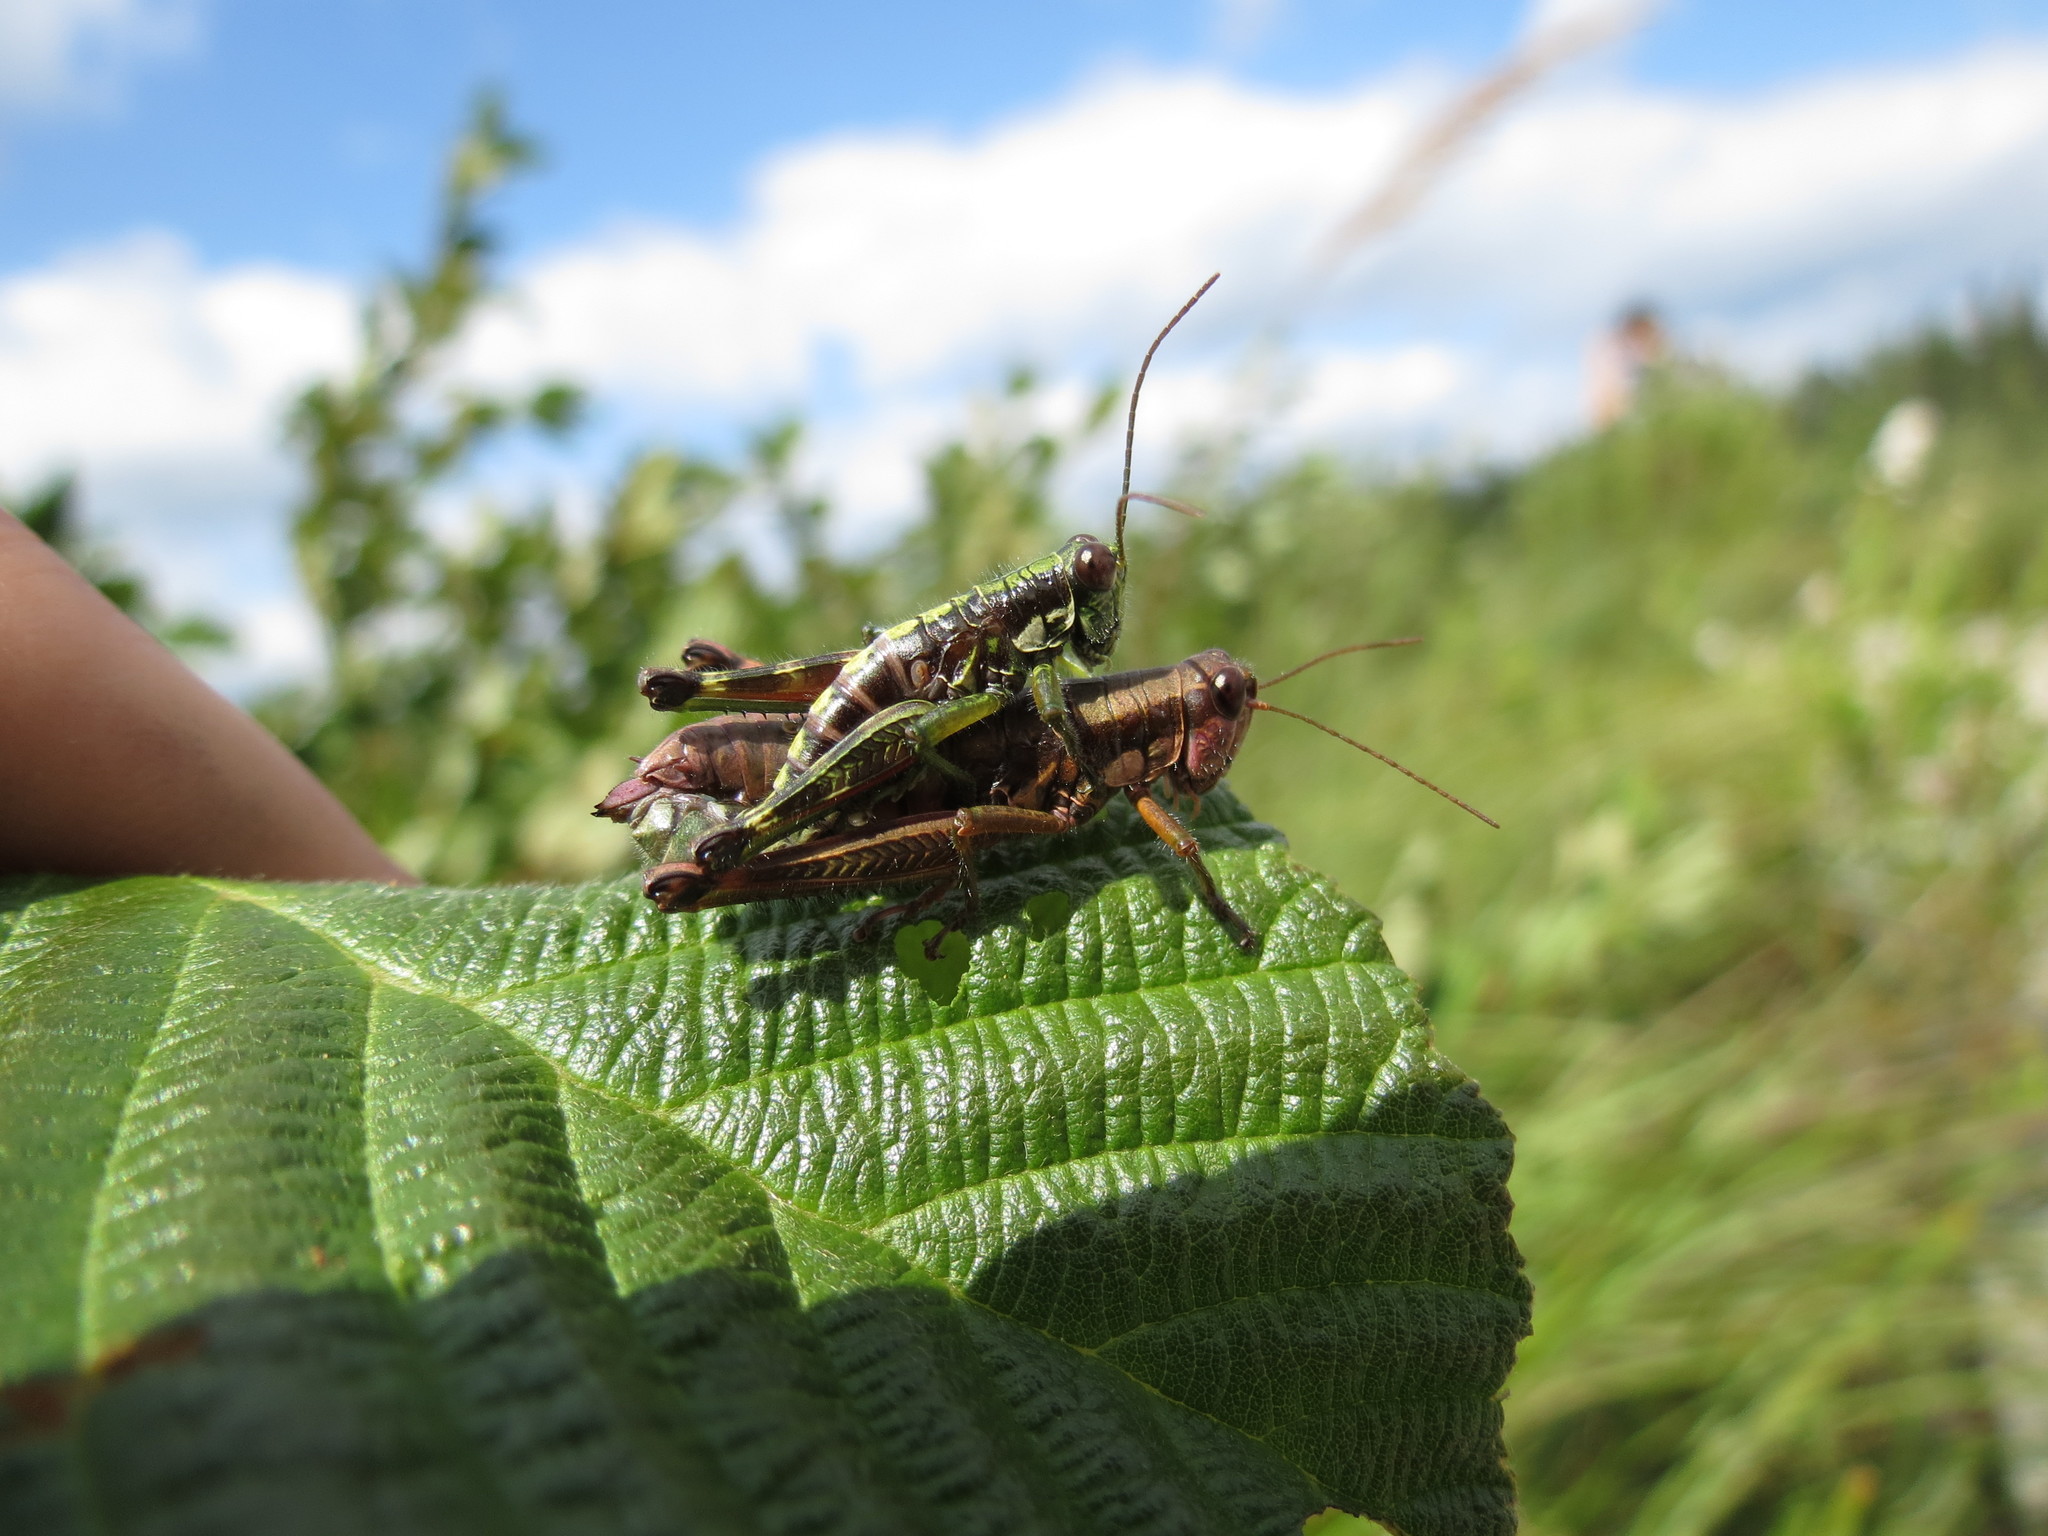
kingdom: Animalia
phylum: Arthropoda
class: Insecta
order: Orthoptera
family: Acrididae
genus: Booneacris
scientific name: Booneacris glacialis
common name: Wingless mountain grasshopper
